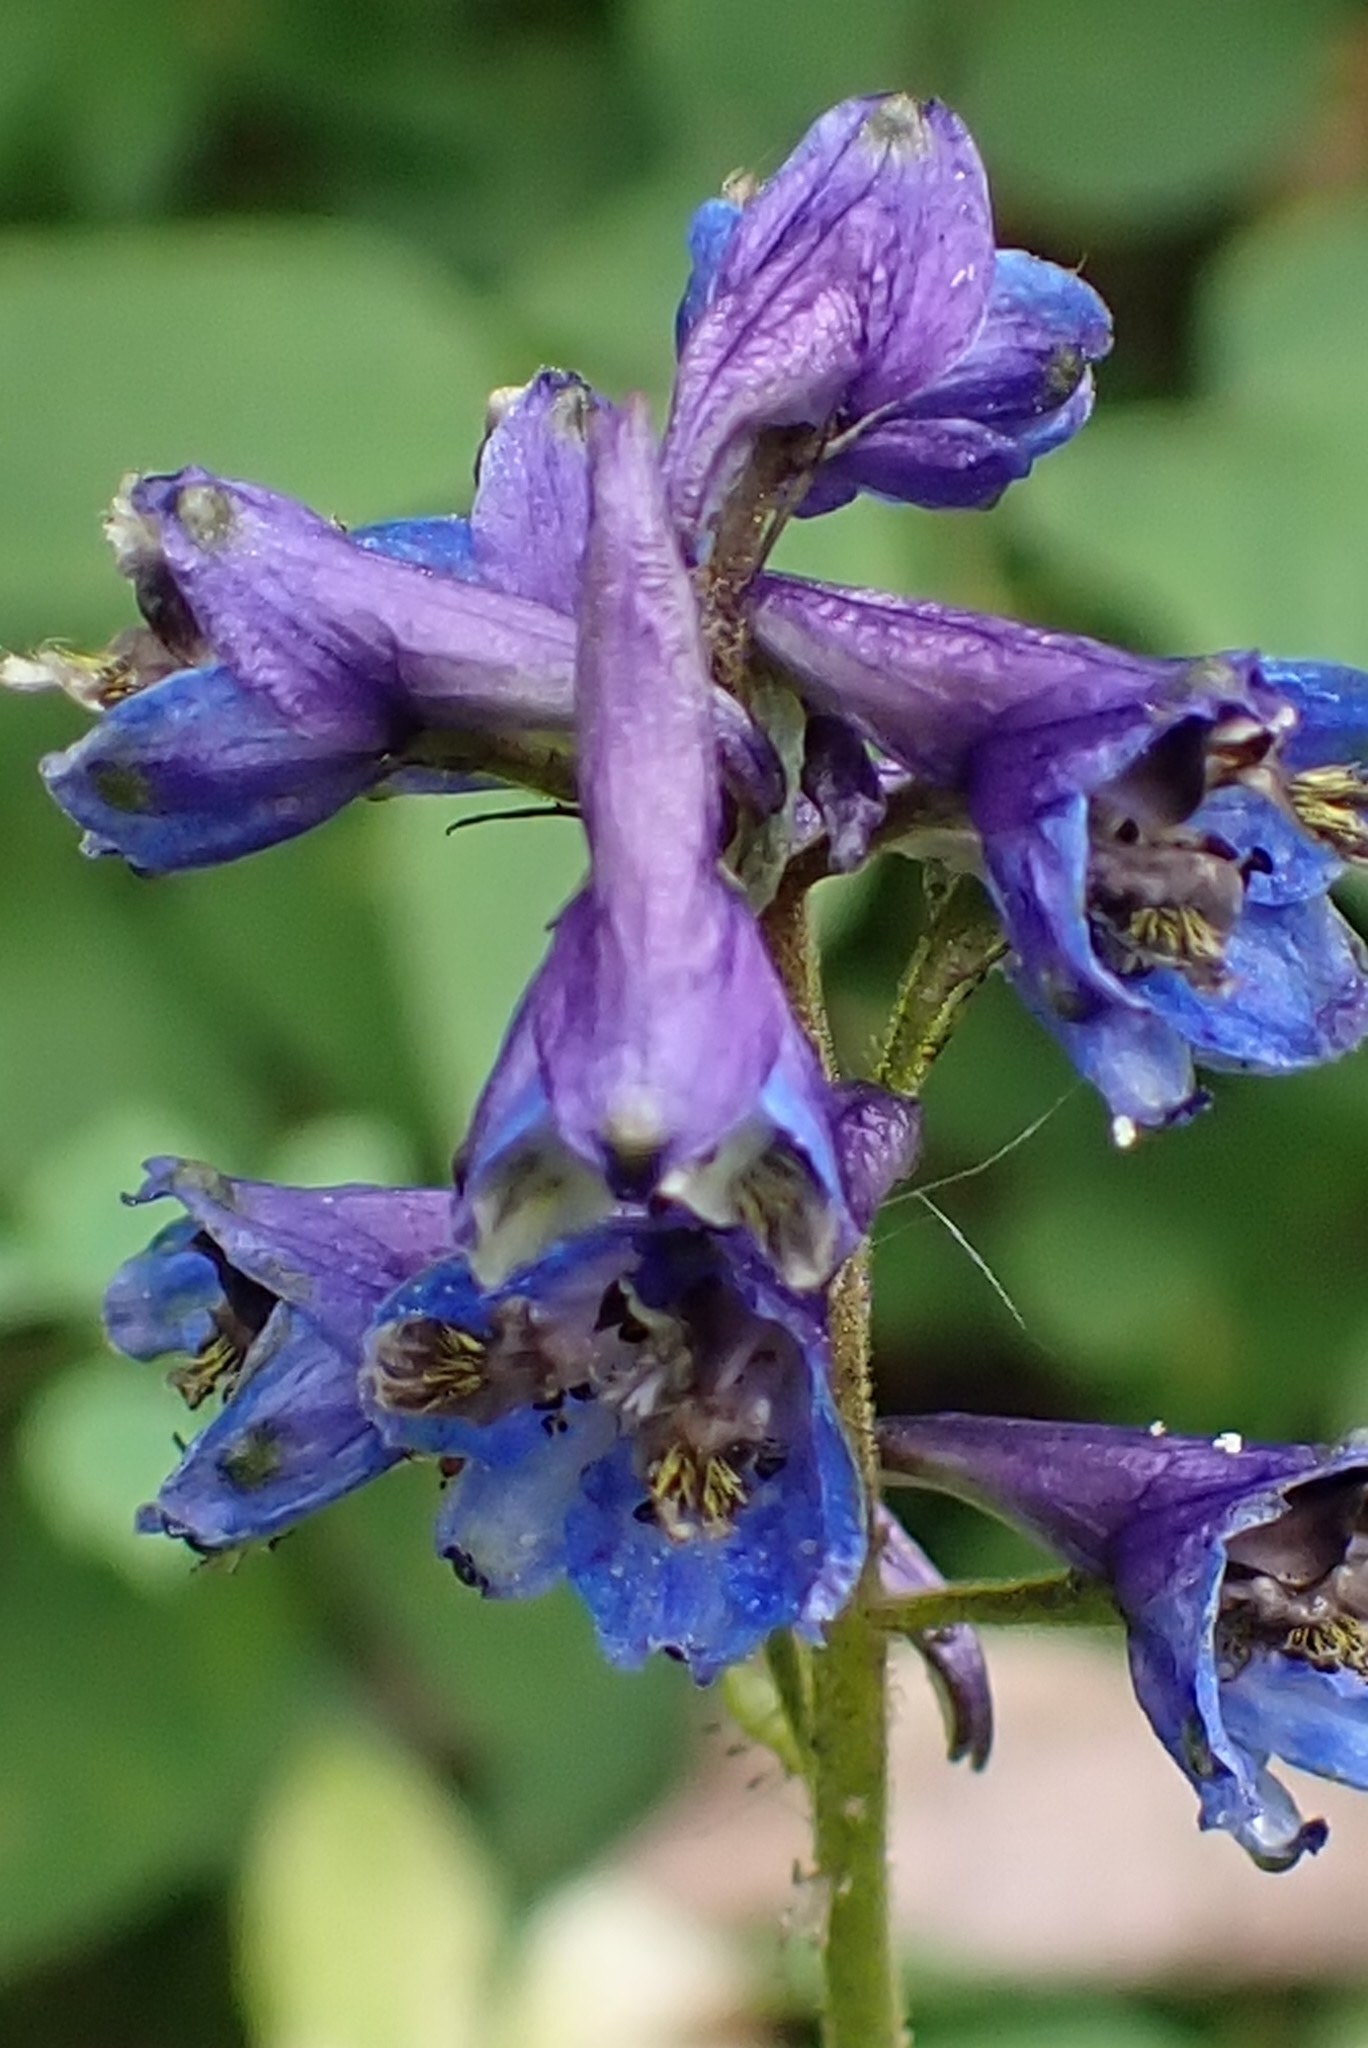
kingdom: Plantae
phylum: Tracheophyta
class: Magnoliopsida
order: Ranunculales
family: Ranunculaceae
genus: Delphinium
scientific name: Delphinium elatum
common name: Candle larkspur
